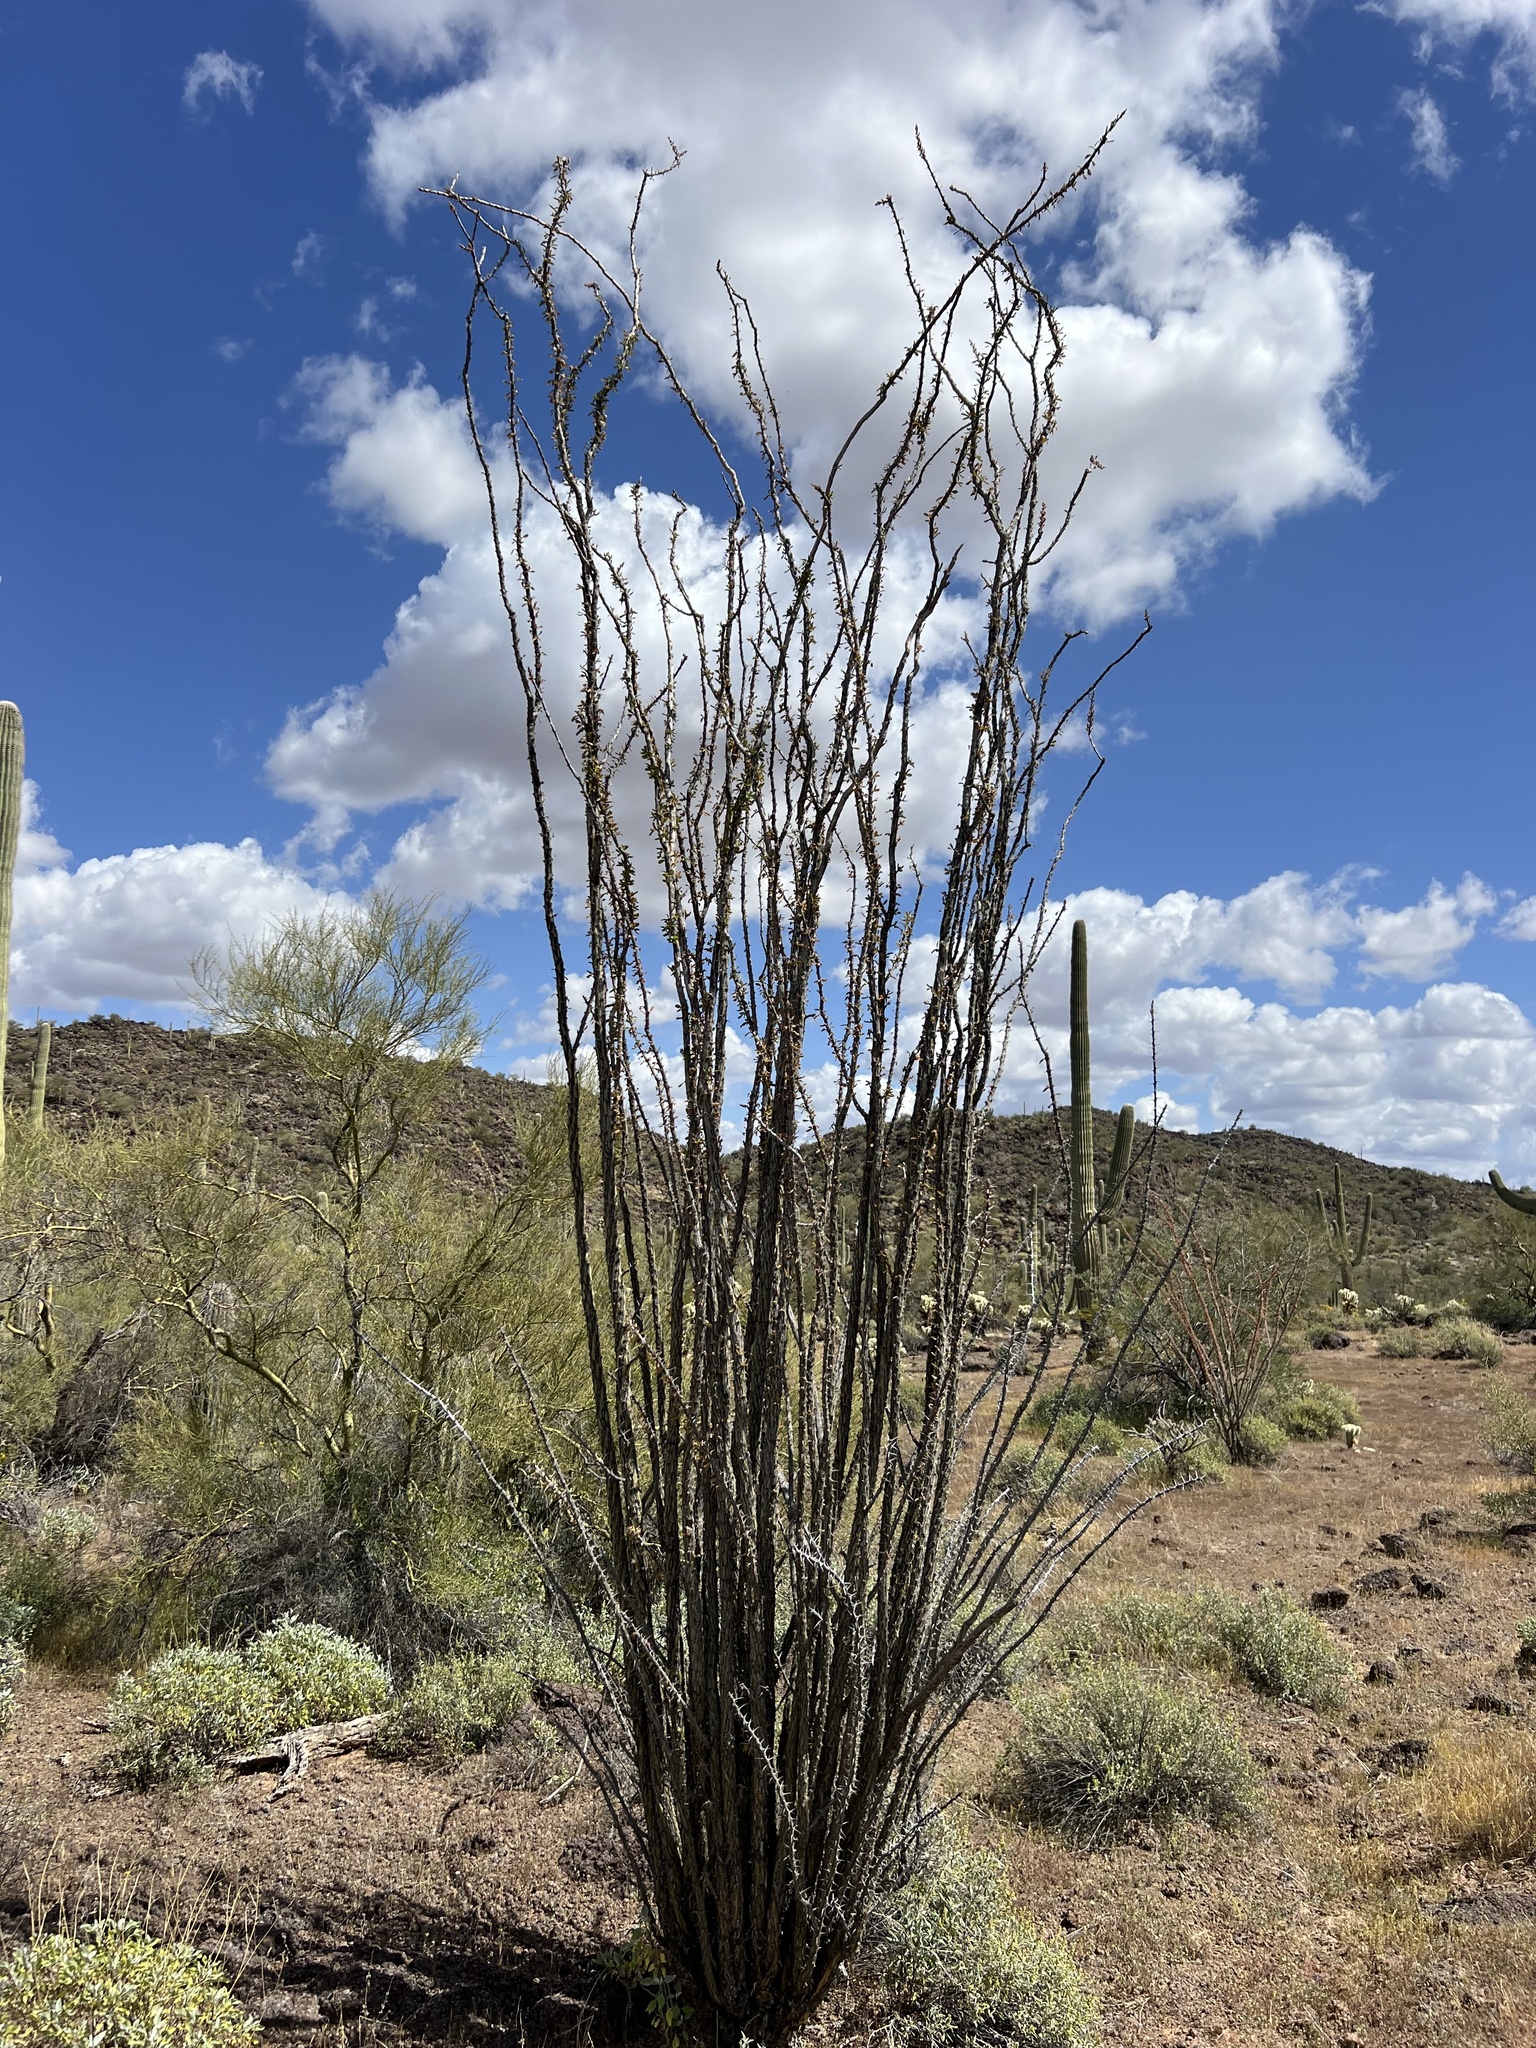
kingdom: Plantae
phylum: Tracheophyta
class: Magnoliopsida
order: Ericales
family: Fouquieriaceae
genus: Fouquieria
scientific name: Fouquieria splendens
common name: Vine-cactus
